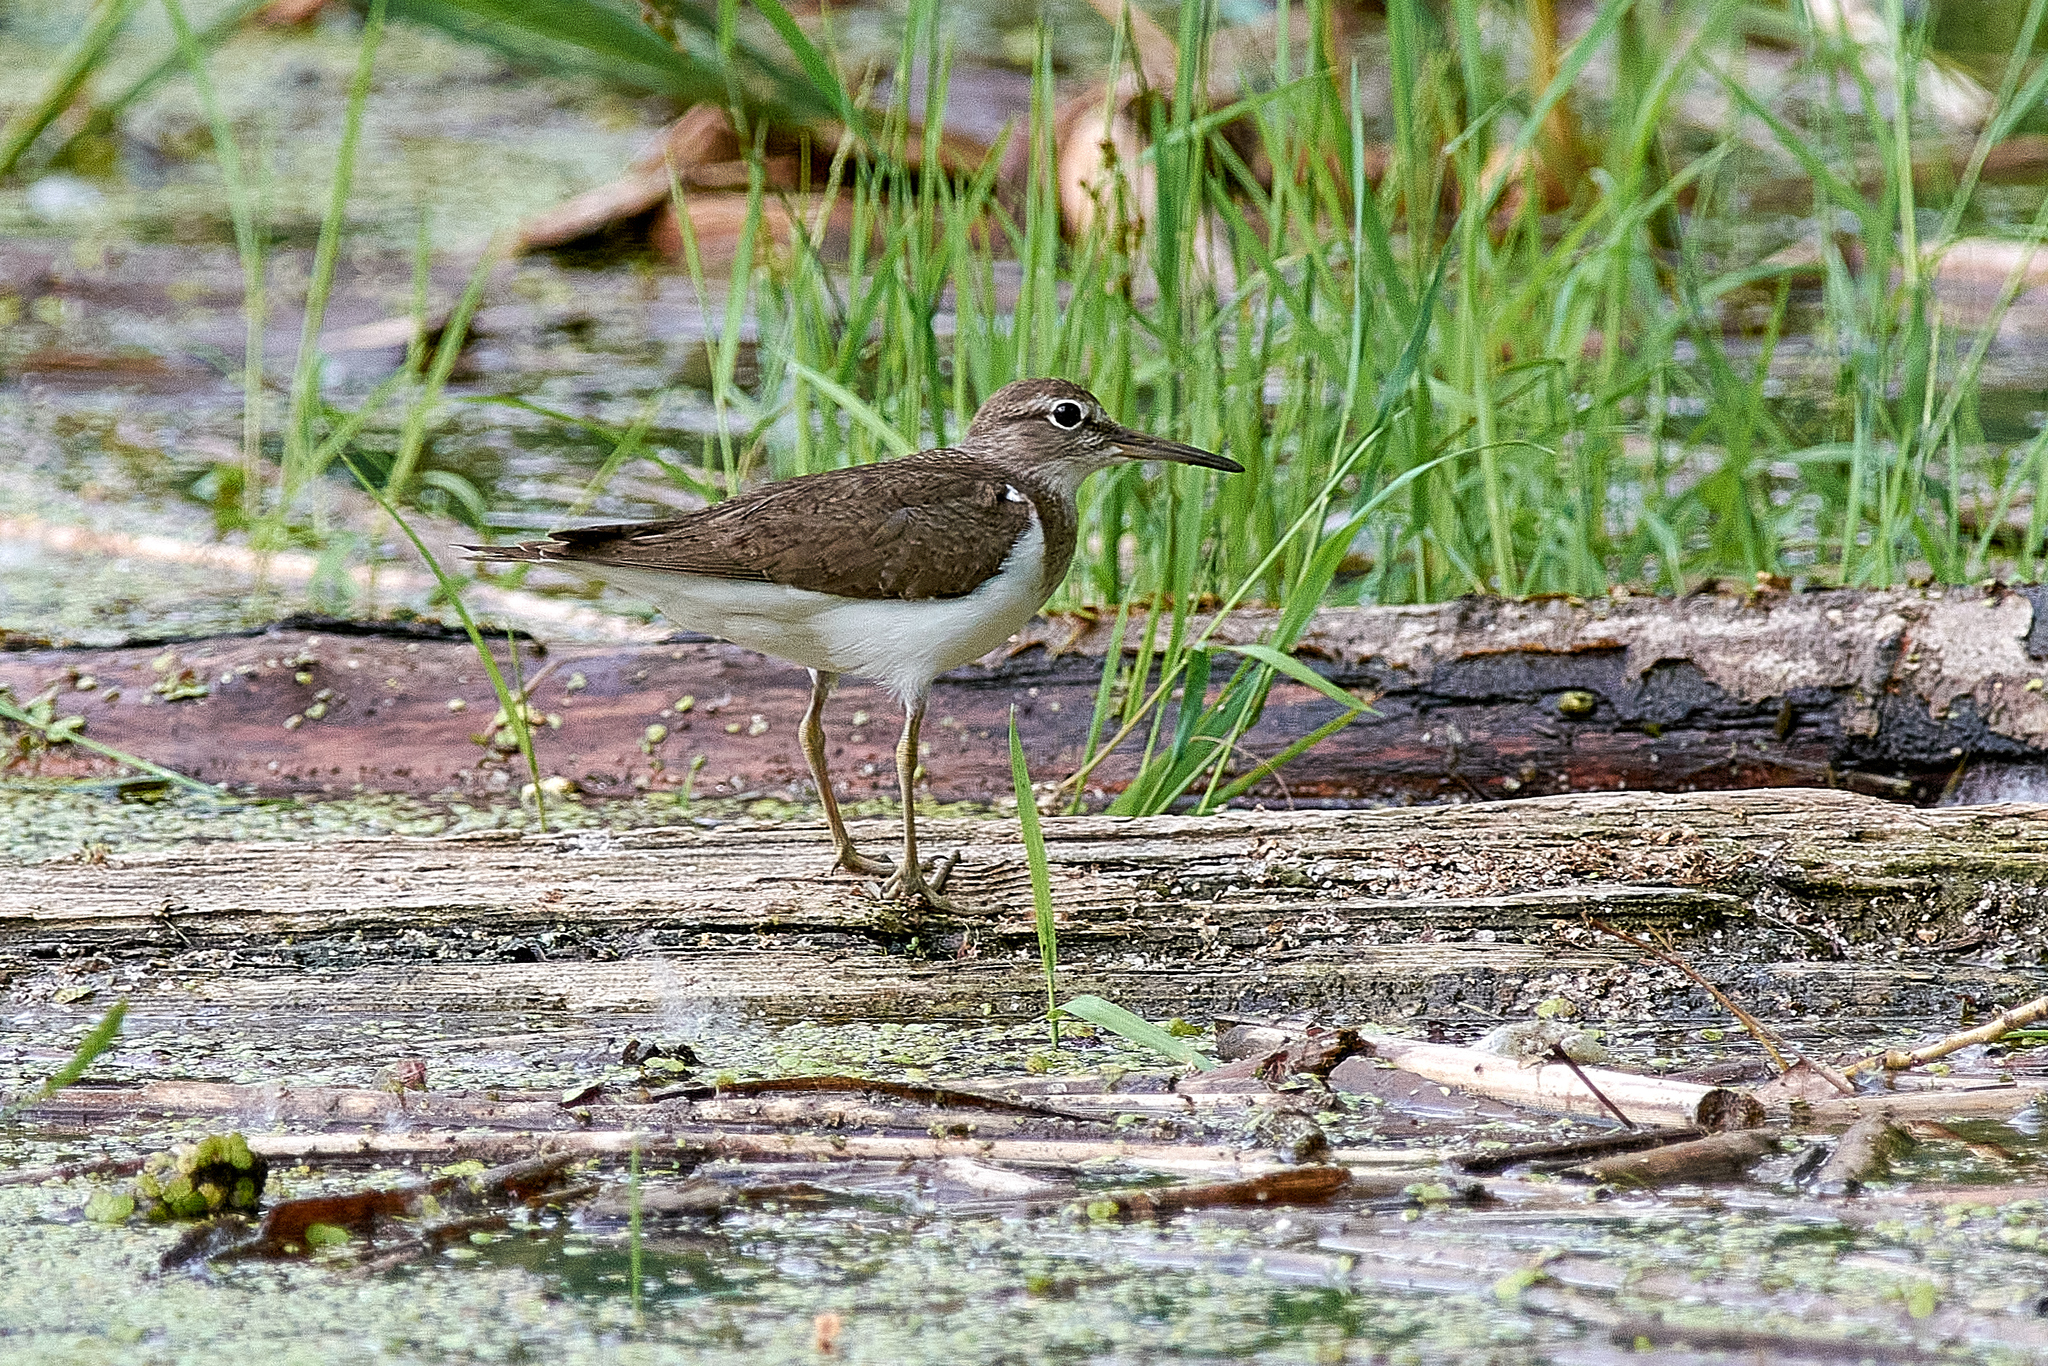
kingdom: Animalia
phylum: Chordata
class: Aves
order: Charadriiformes
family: Scolopacidae
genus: Actitis
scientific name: Actitis hypoleucos
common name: Common sandpiper
